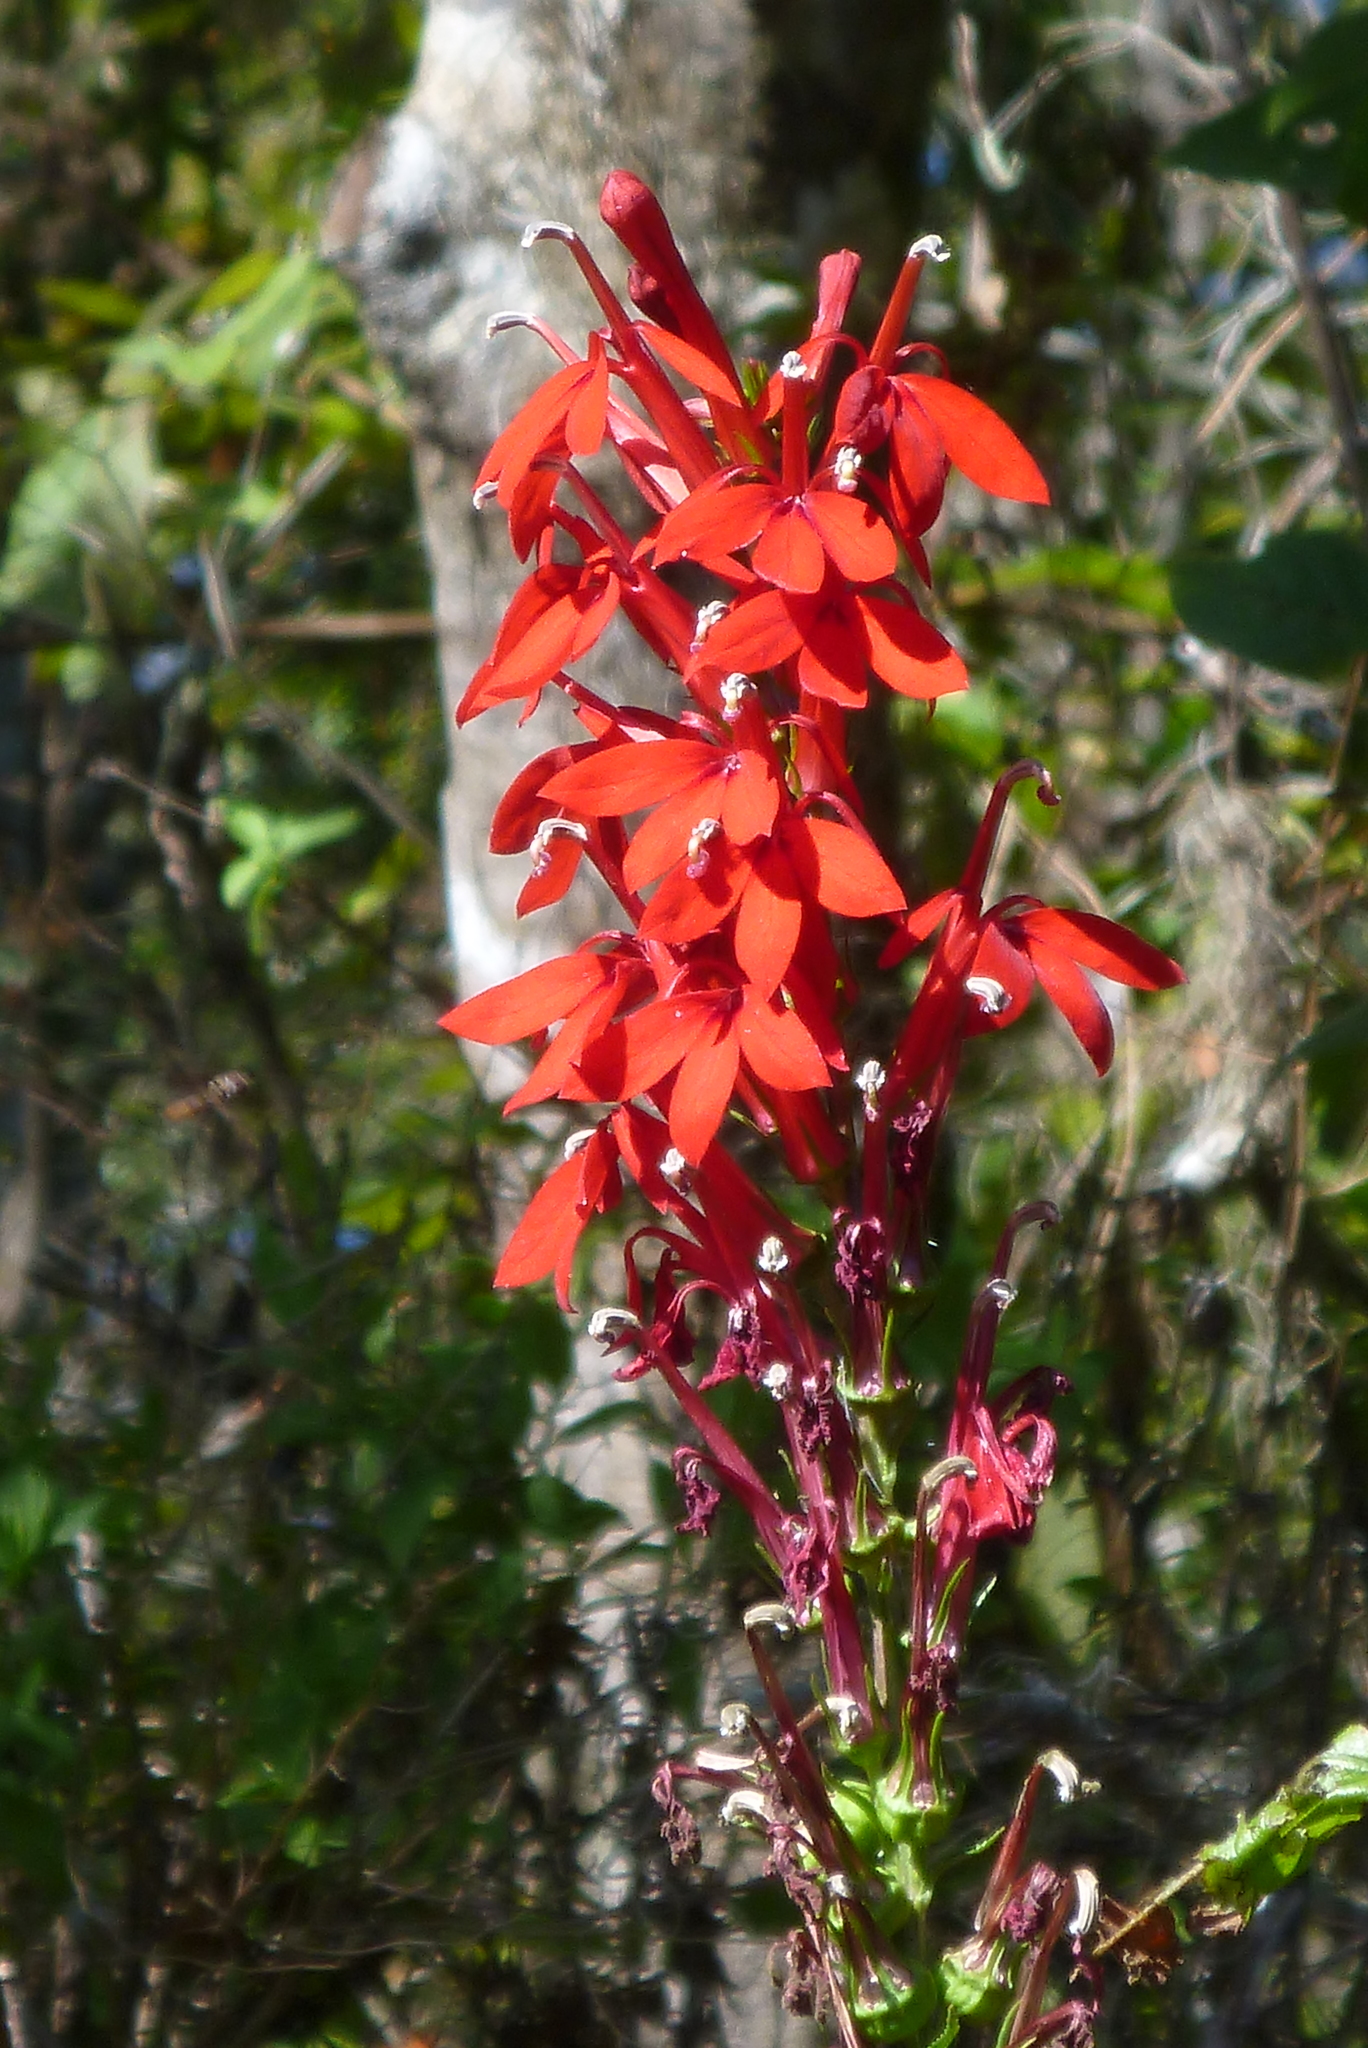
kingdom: Plantae
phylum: Tracheophyta
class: Magnoliopsida
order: Asterales
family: Campanulaceae
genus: Lobelia
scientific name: Lobelia cardinalis
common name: Cardinal flower
